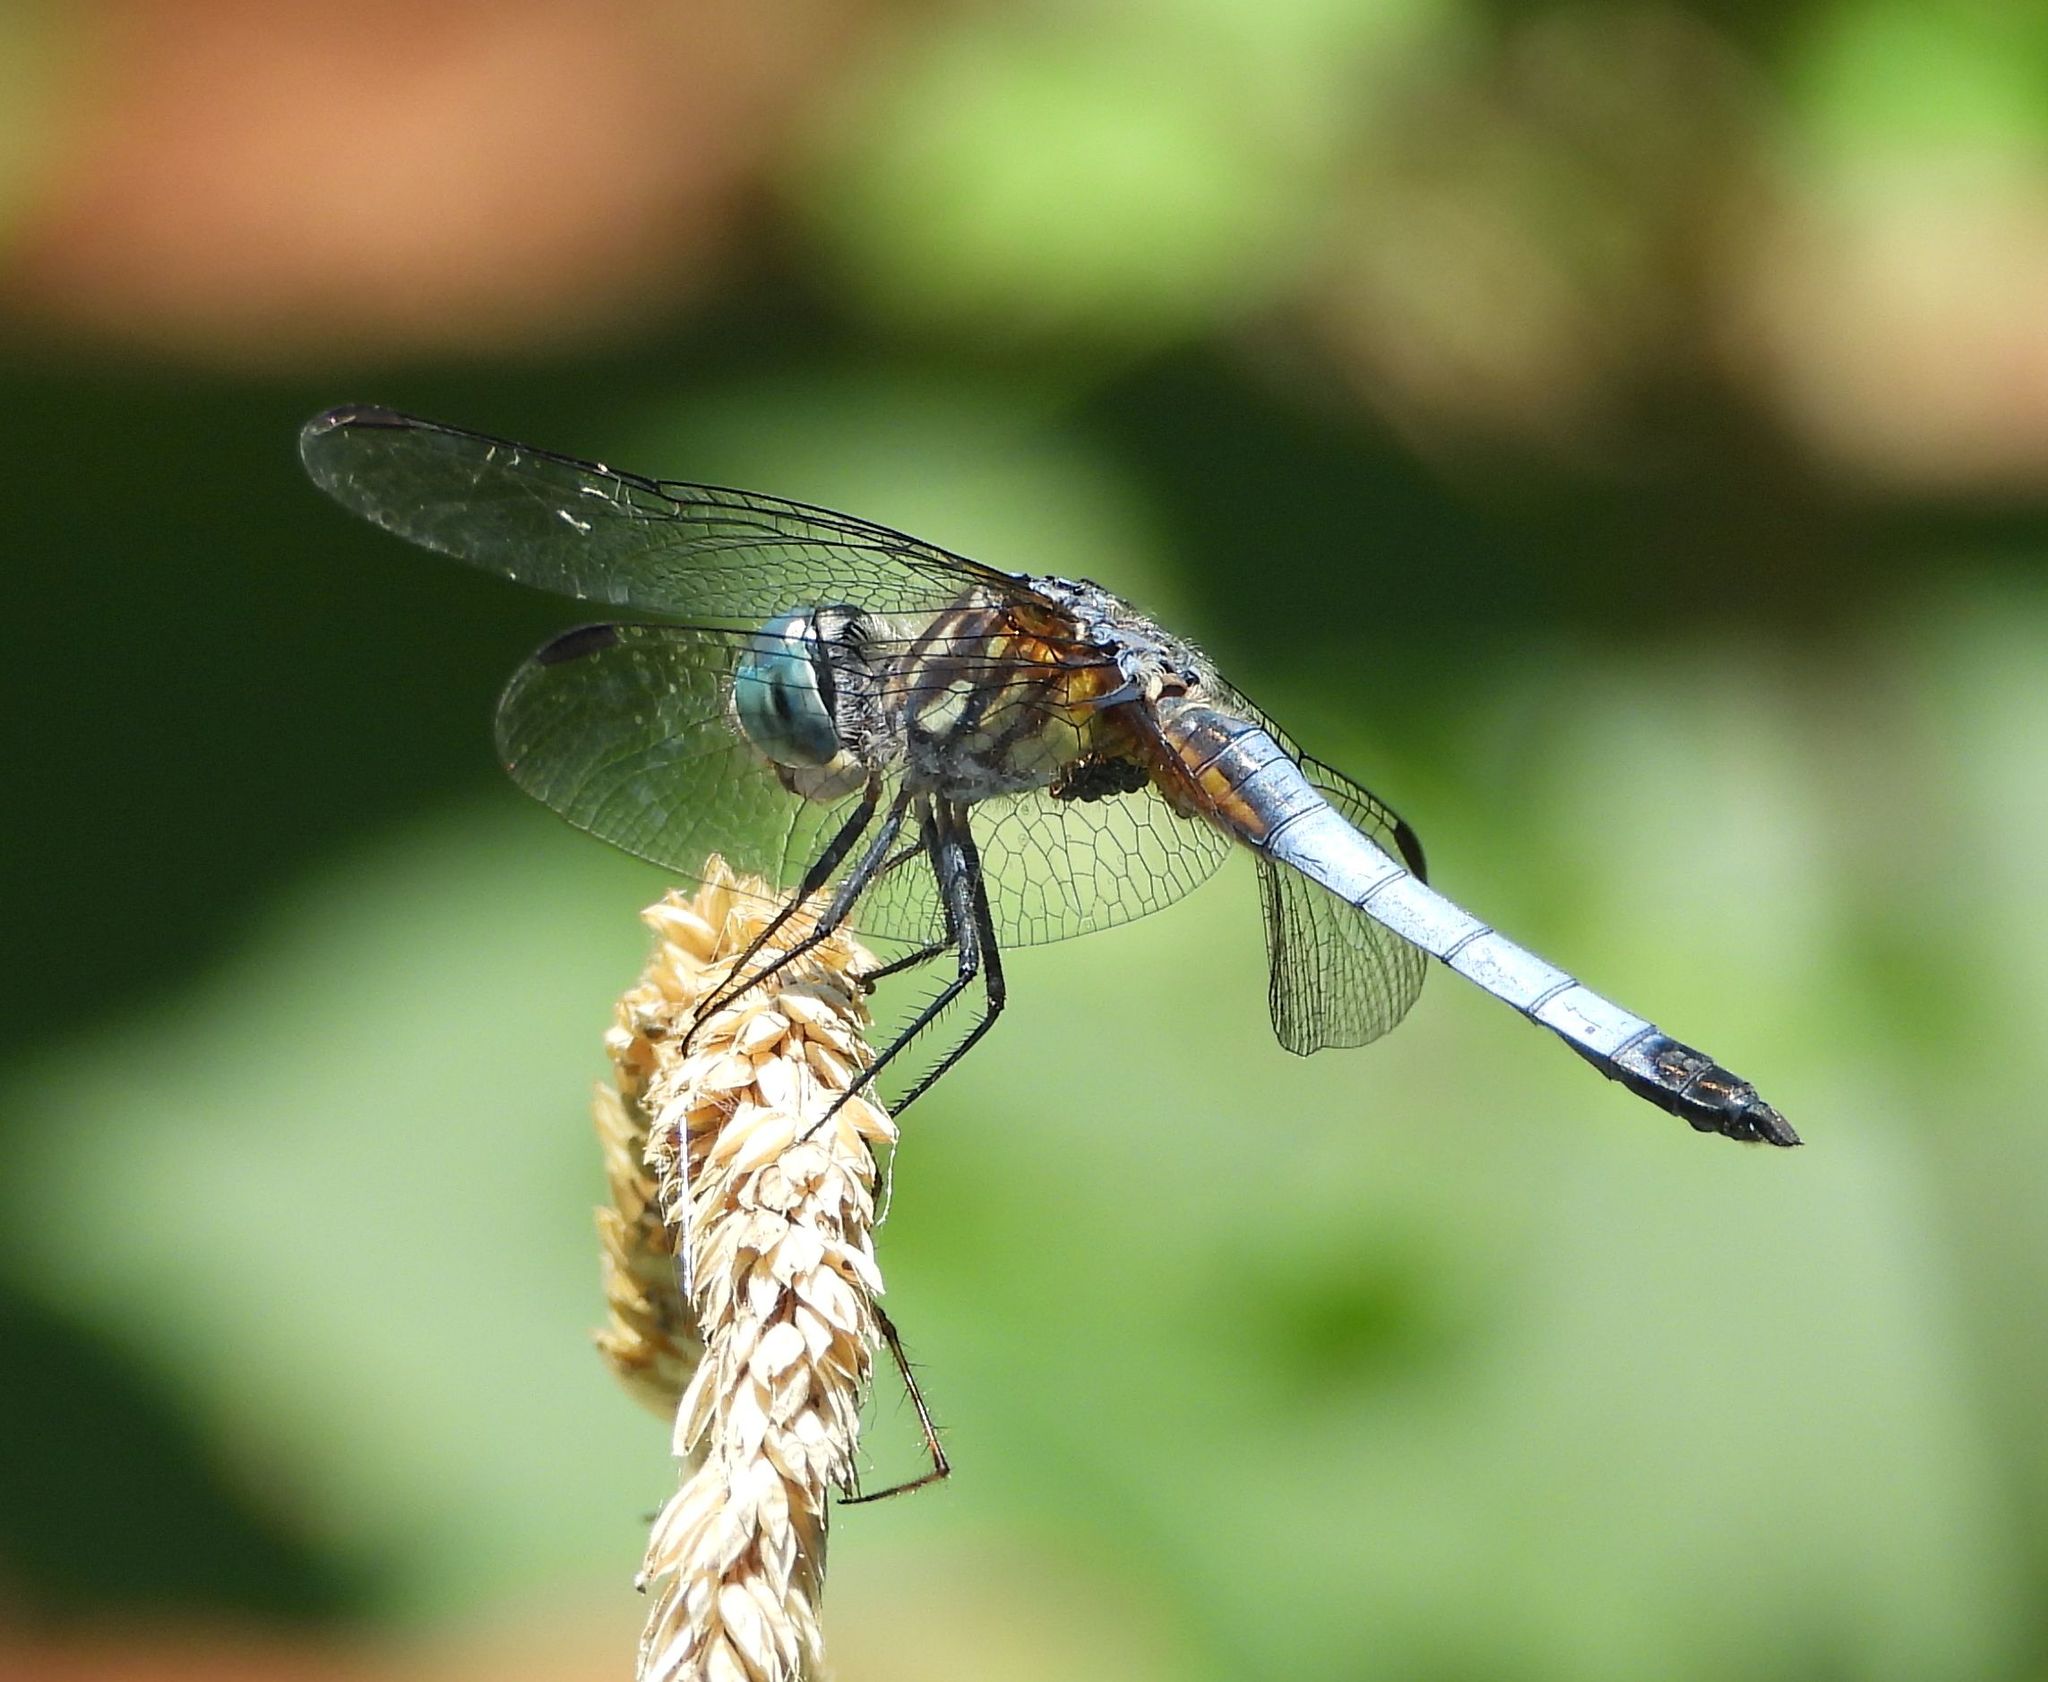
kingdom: Animalia
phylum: Arthropoda
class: Insecta
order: Odonata
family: Libellulidae
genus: Pachydiplax
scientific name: Pachydiplax longipennis
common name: Blue dasher
